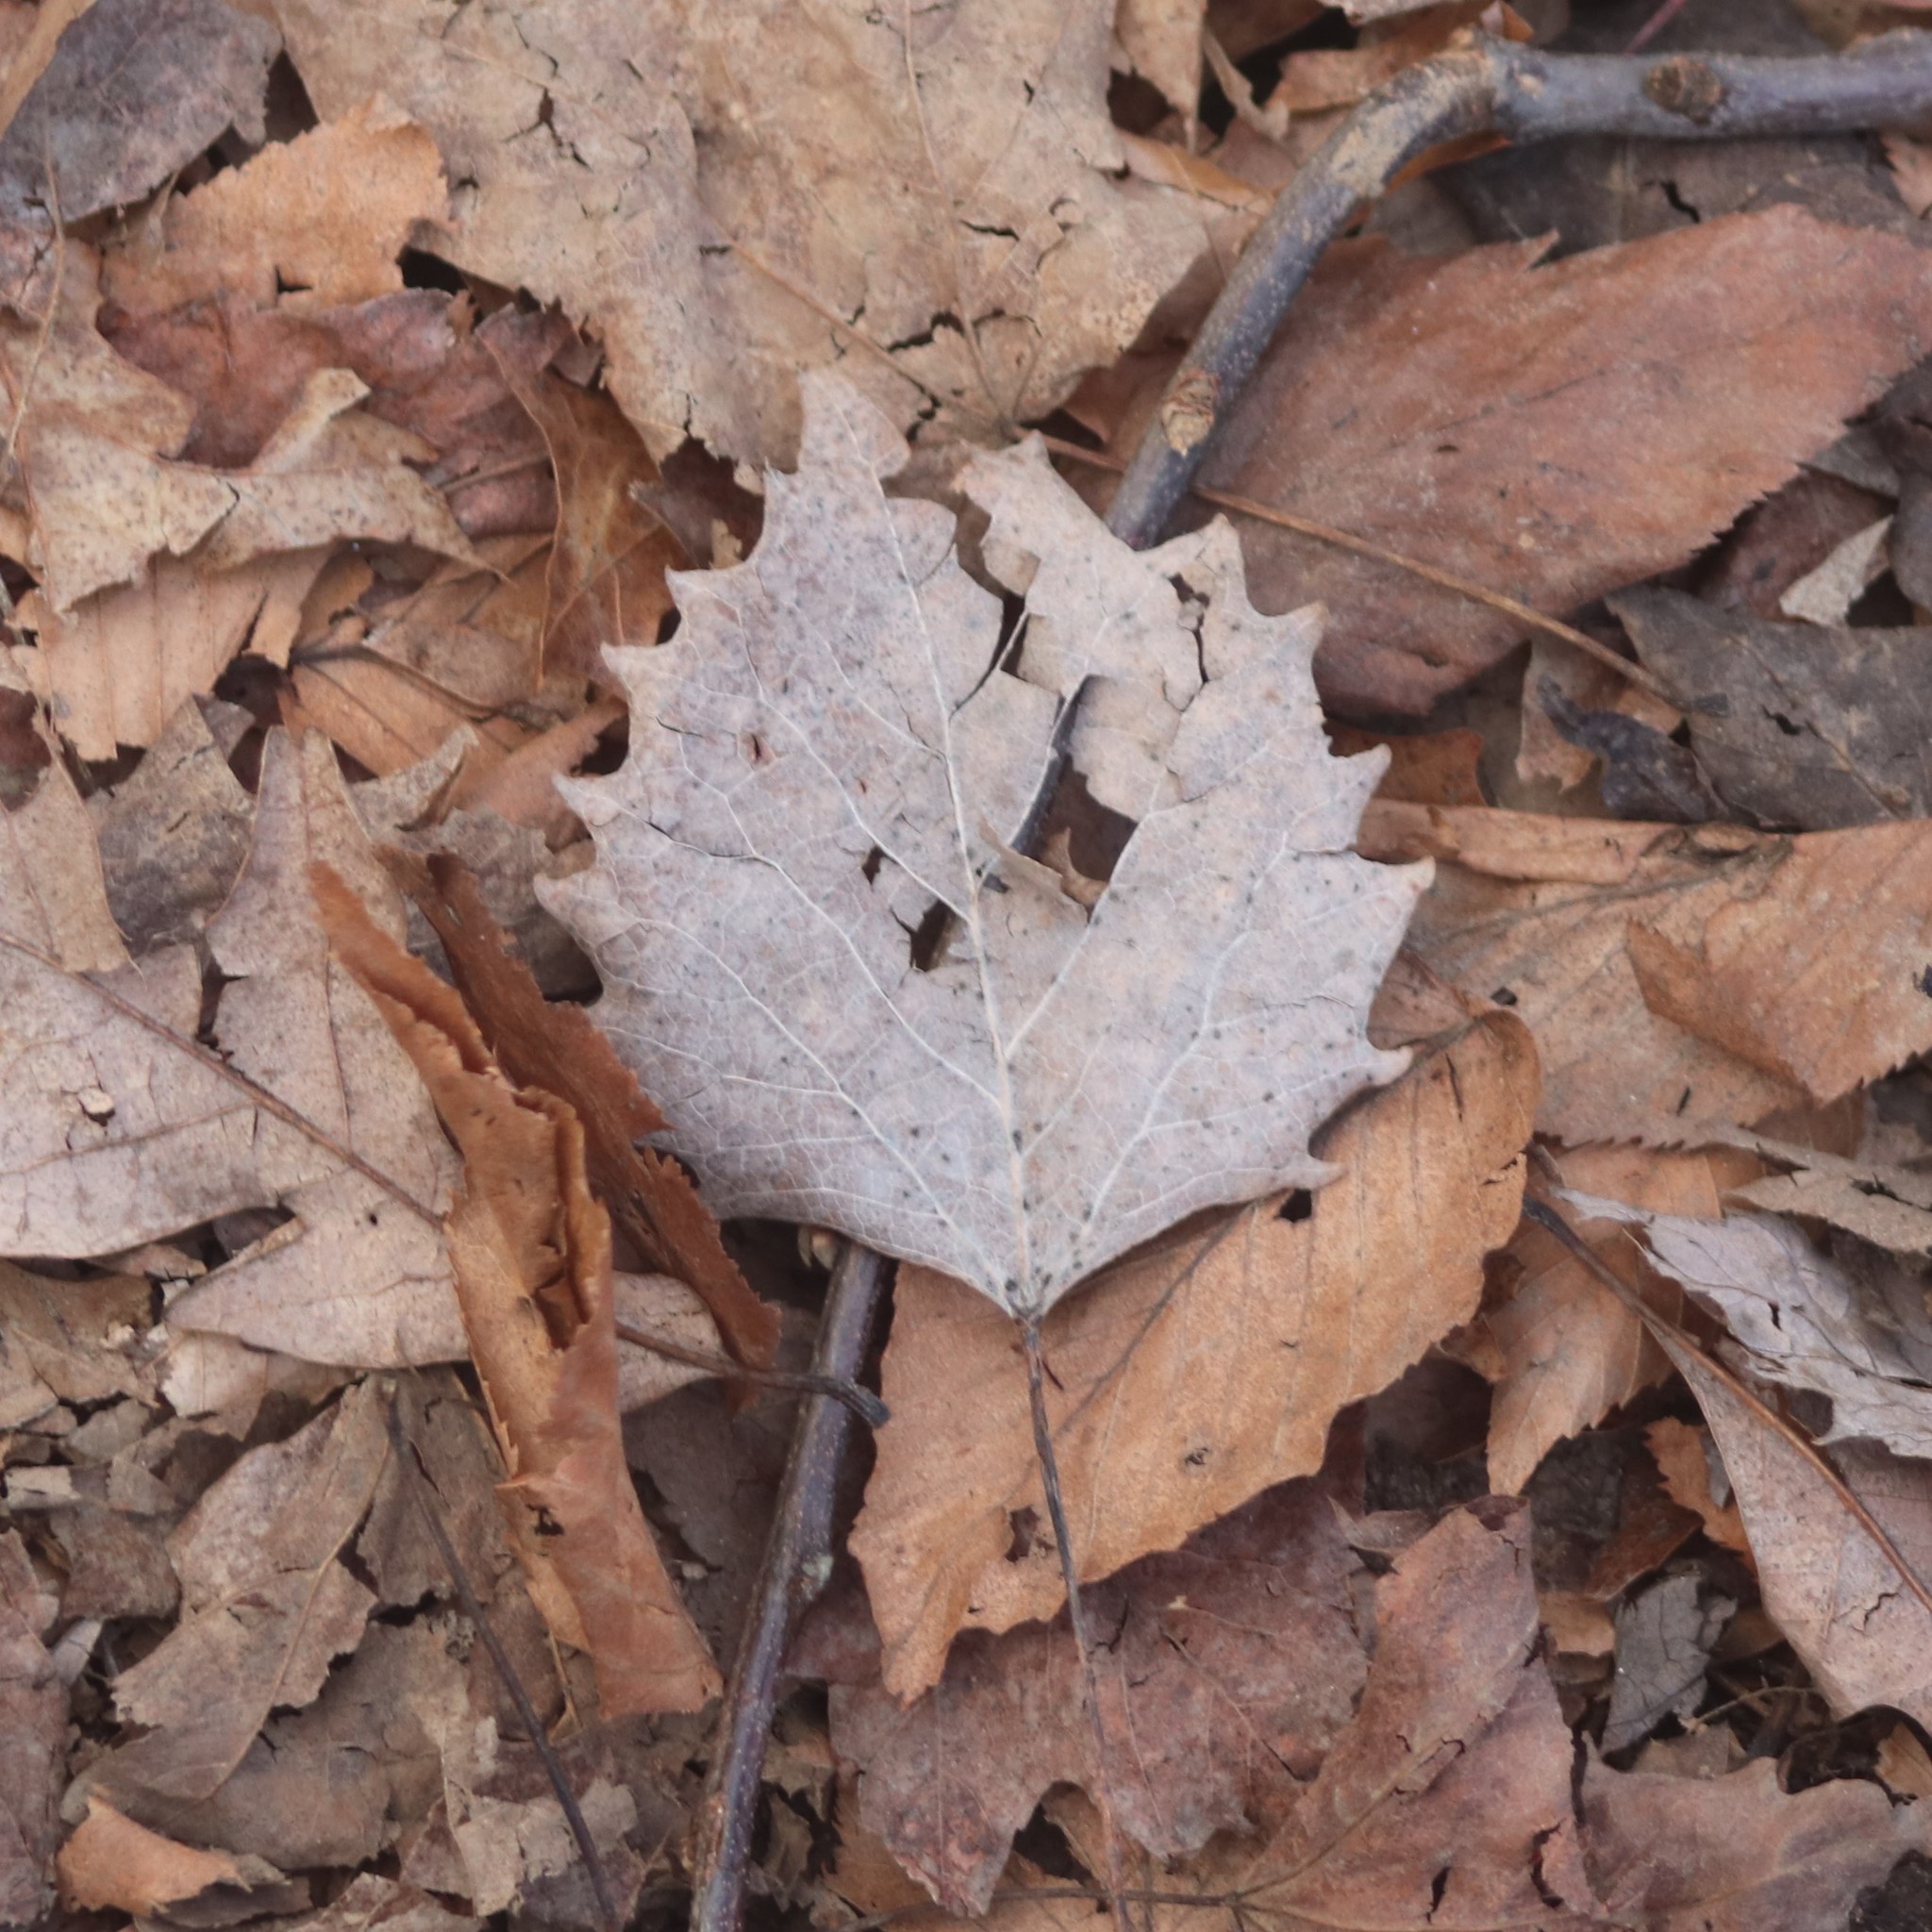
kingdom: Plantae
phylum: Tracheophyta
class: Magnoliopsida
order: Malpighiales
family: Salicaceae
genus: Populus
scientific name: Populus grandidentata
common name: Bigtooth aspen
